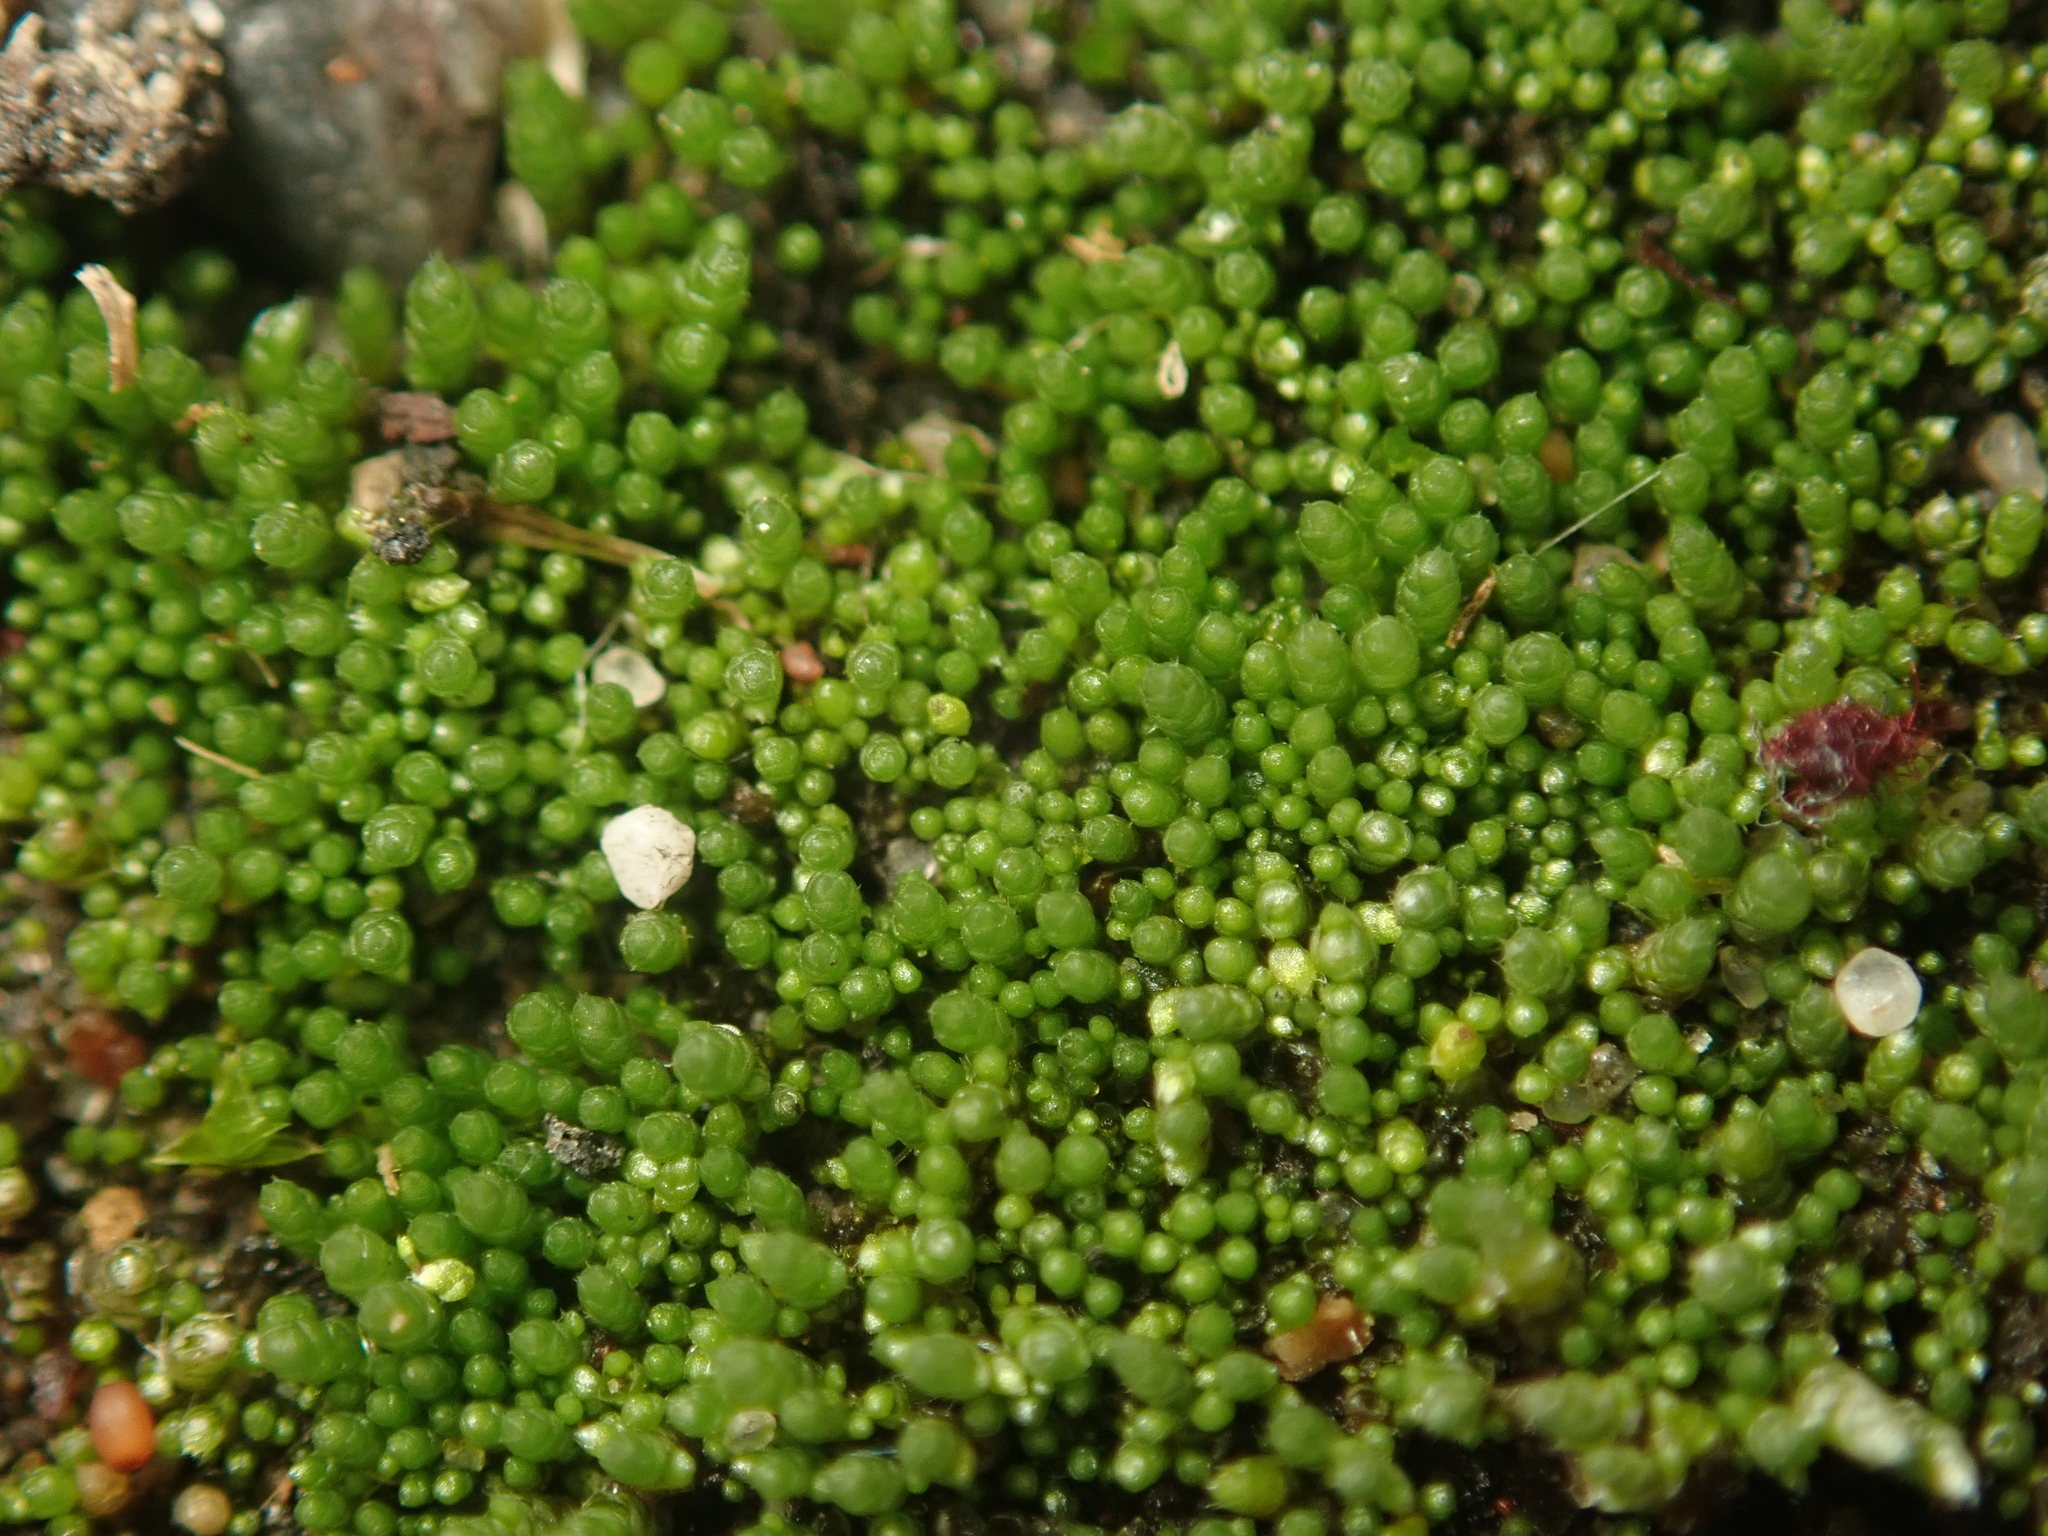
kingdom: Plantae
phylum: Bryophyta
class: Bryopsida
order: Bryales
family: Bryaceae
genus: Bryum
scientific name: Bryum argenteum
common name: Silver-moss
